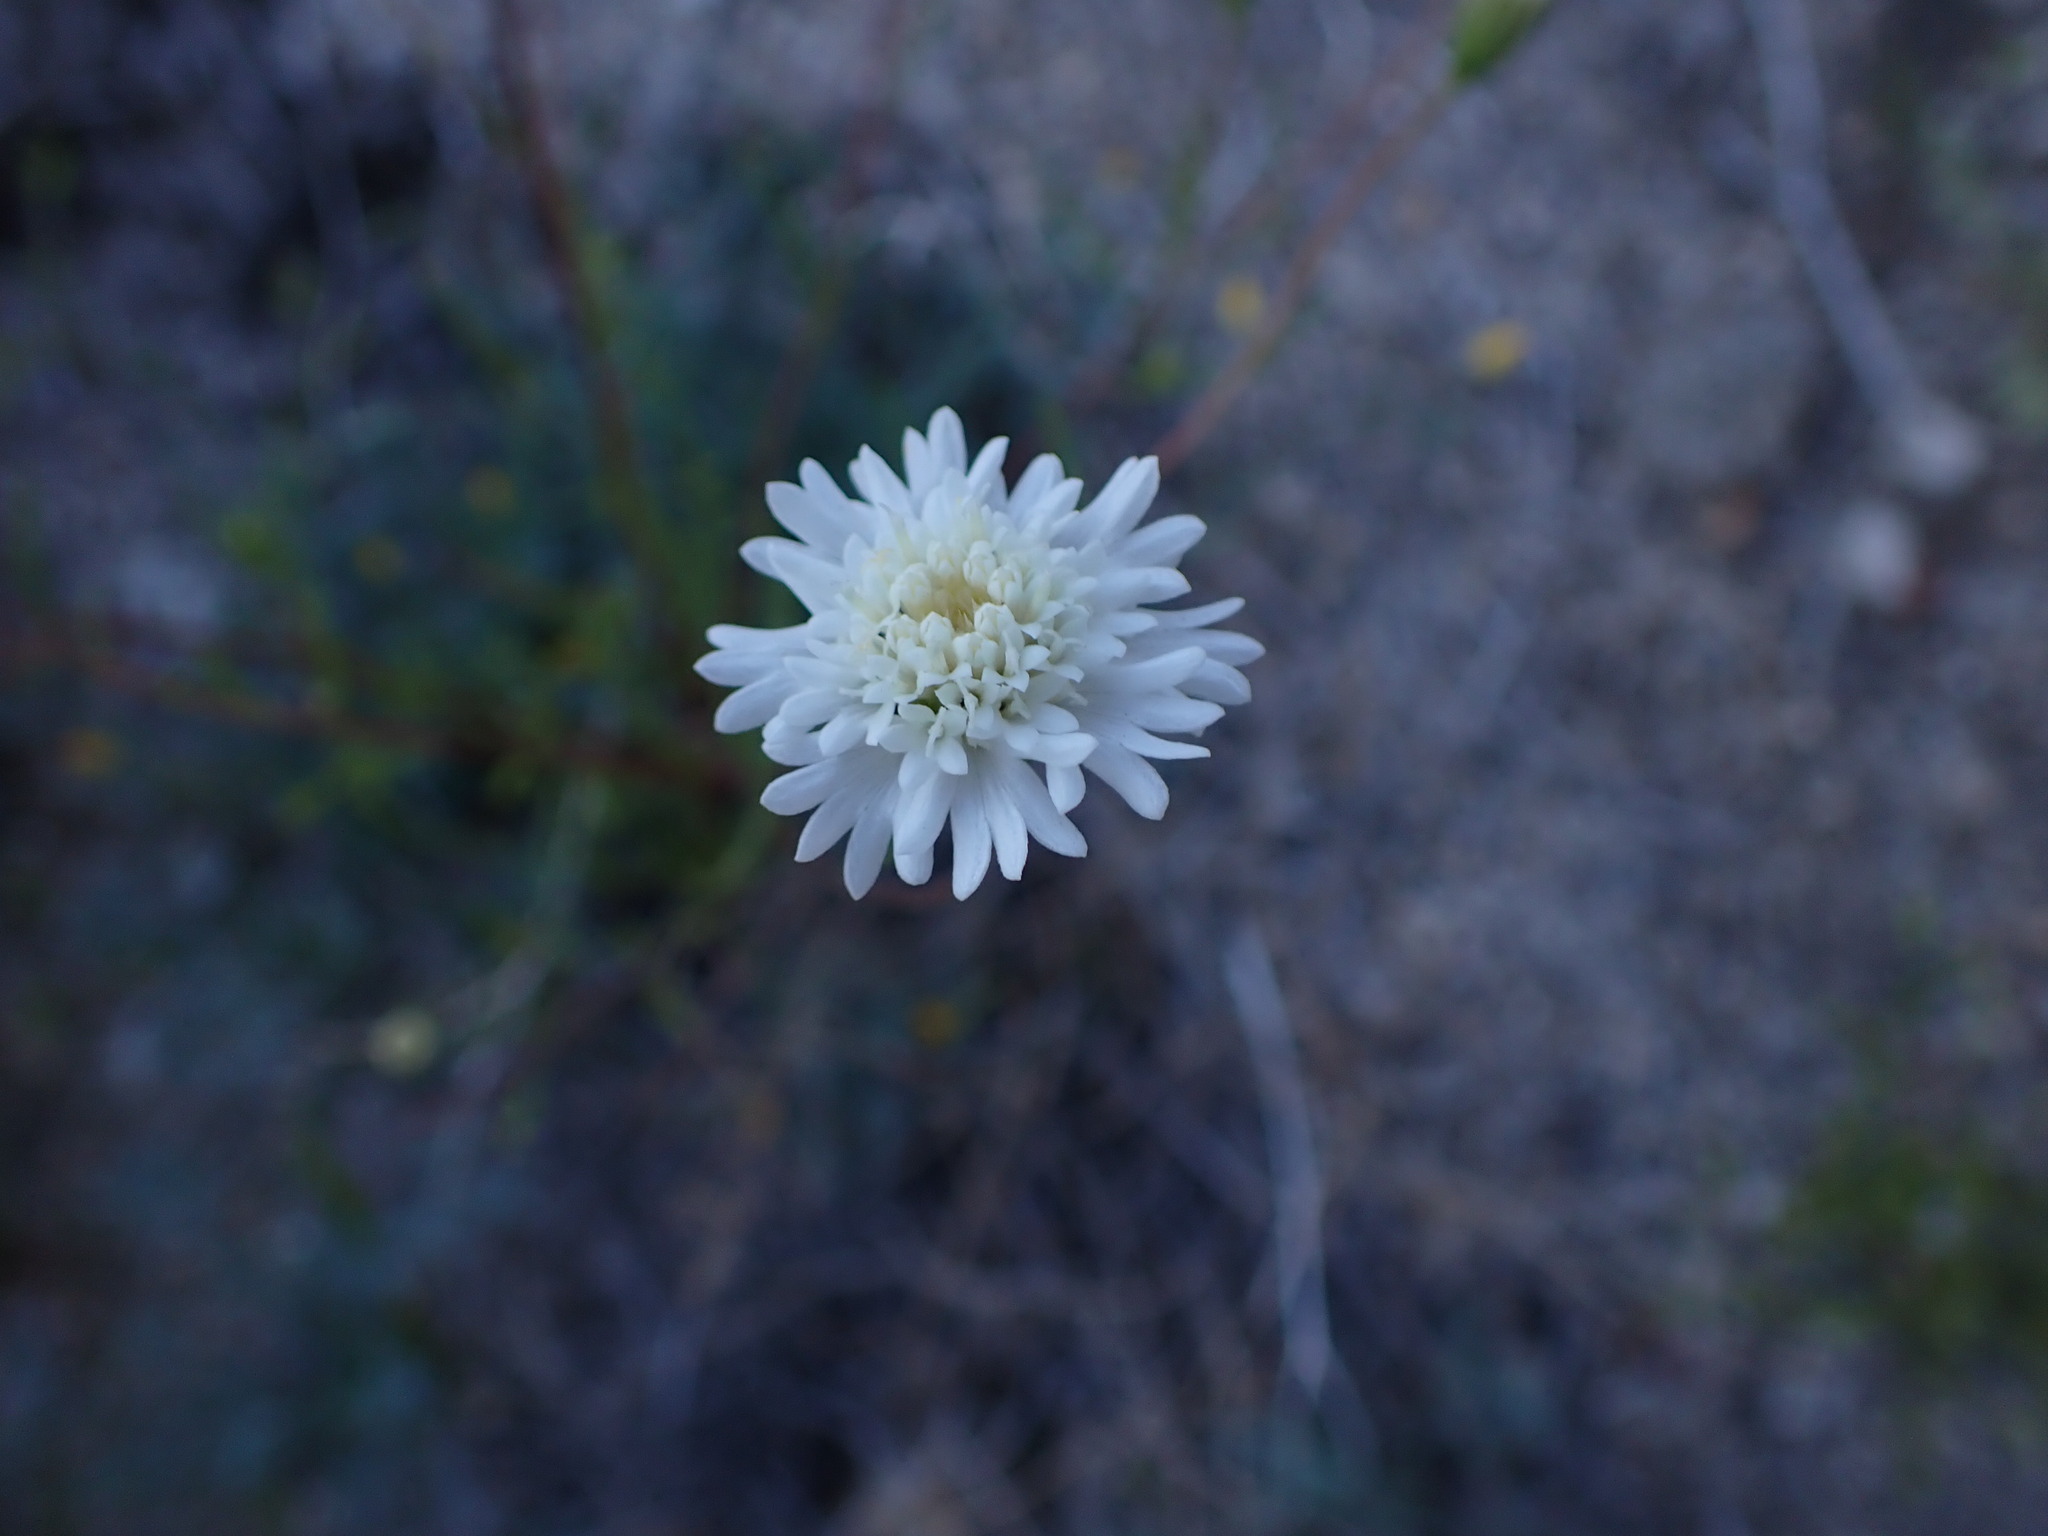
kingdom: Plantae
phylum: Tracheophyta
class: Magnoliopsida
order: Asterales
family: Asteraceae
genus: Chaenactis
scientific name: Chaenactis fremontii
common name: Fremont pincushion
